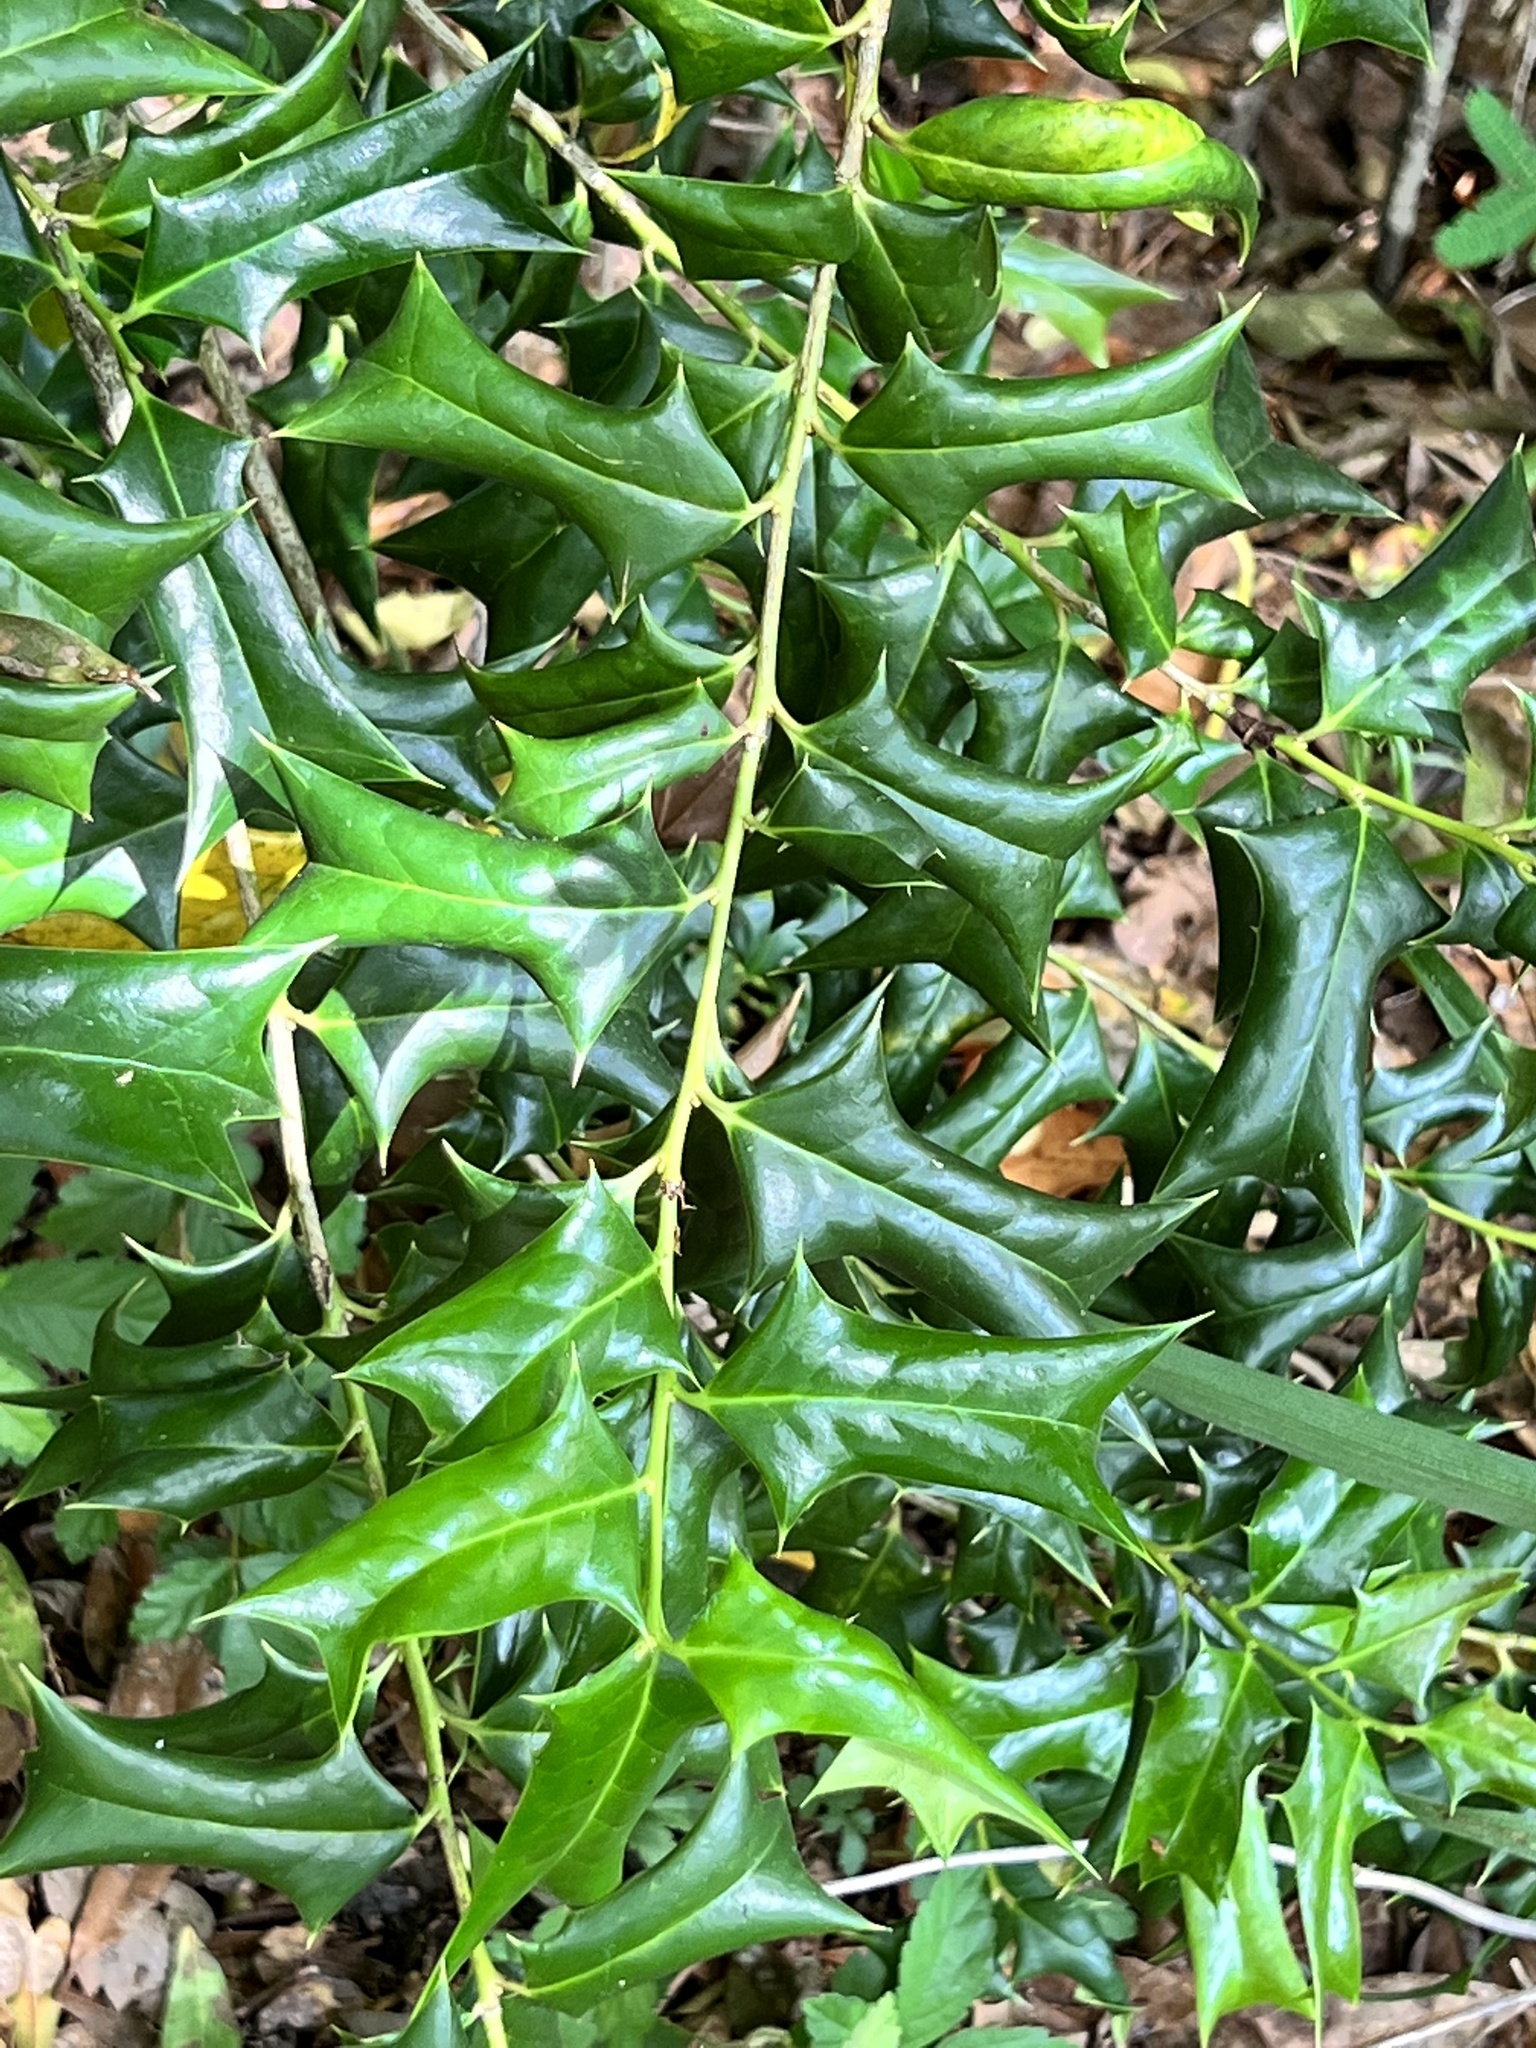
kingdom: Plantae
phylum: Tracheophyta
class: Magnoliopsida
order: Aquifoliales
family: Aquifoliaceae
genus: Ilex
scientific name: Ilex cornuta
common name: Chinese holly
